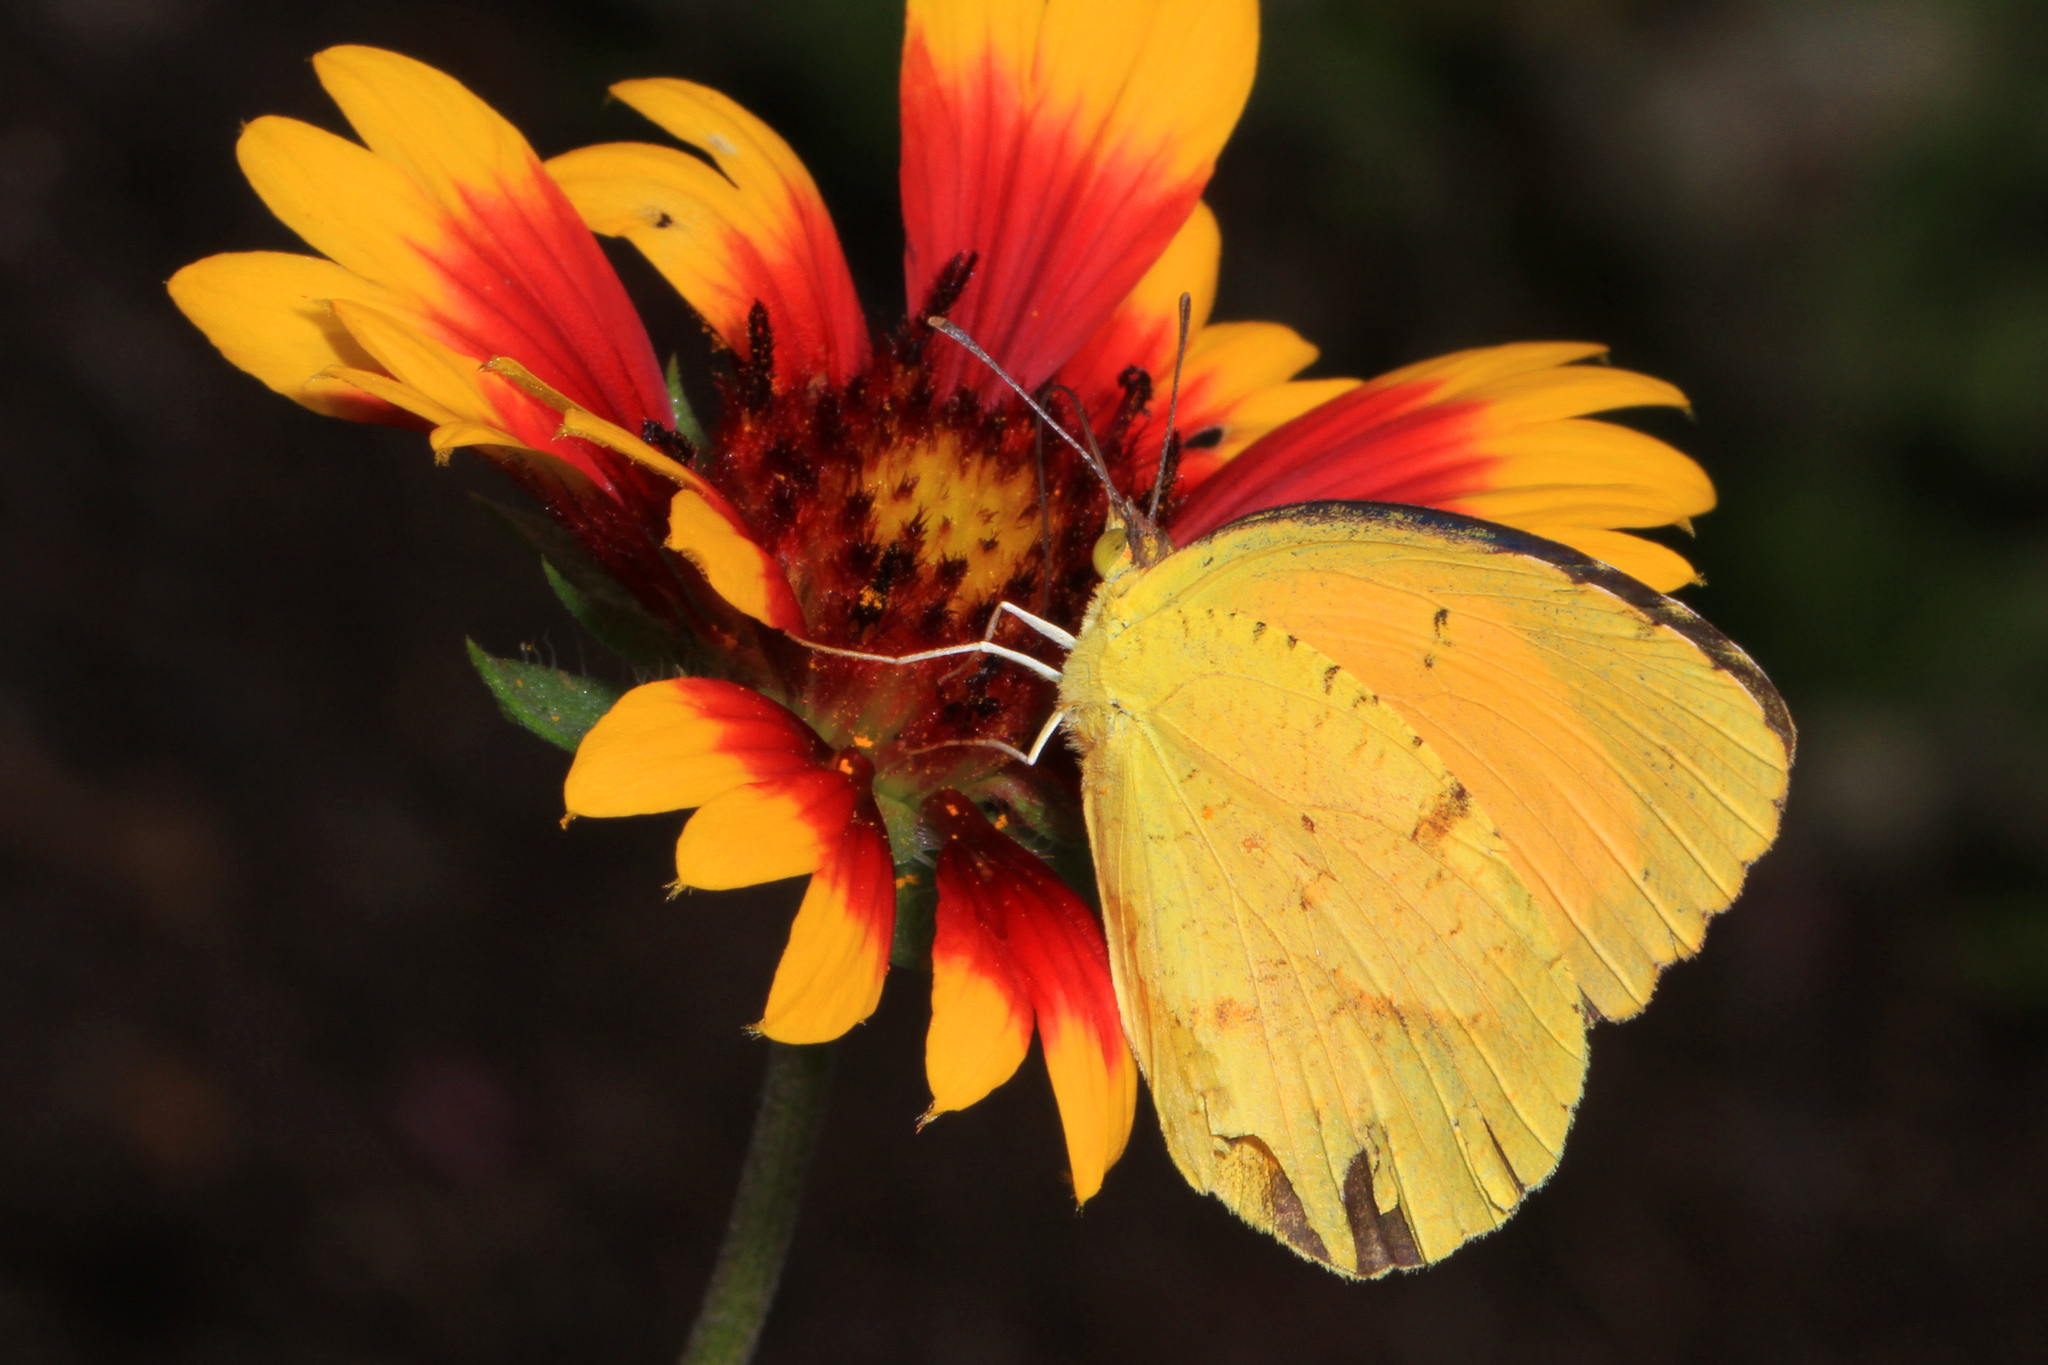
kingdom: Animalia
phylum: Arthropoda
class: Insecta
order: Lepidoptera
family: Pieridae
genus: Abaeis
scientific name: Abaeis nicippe
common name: Sleepy orange
